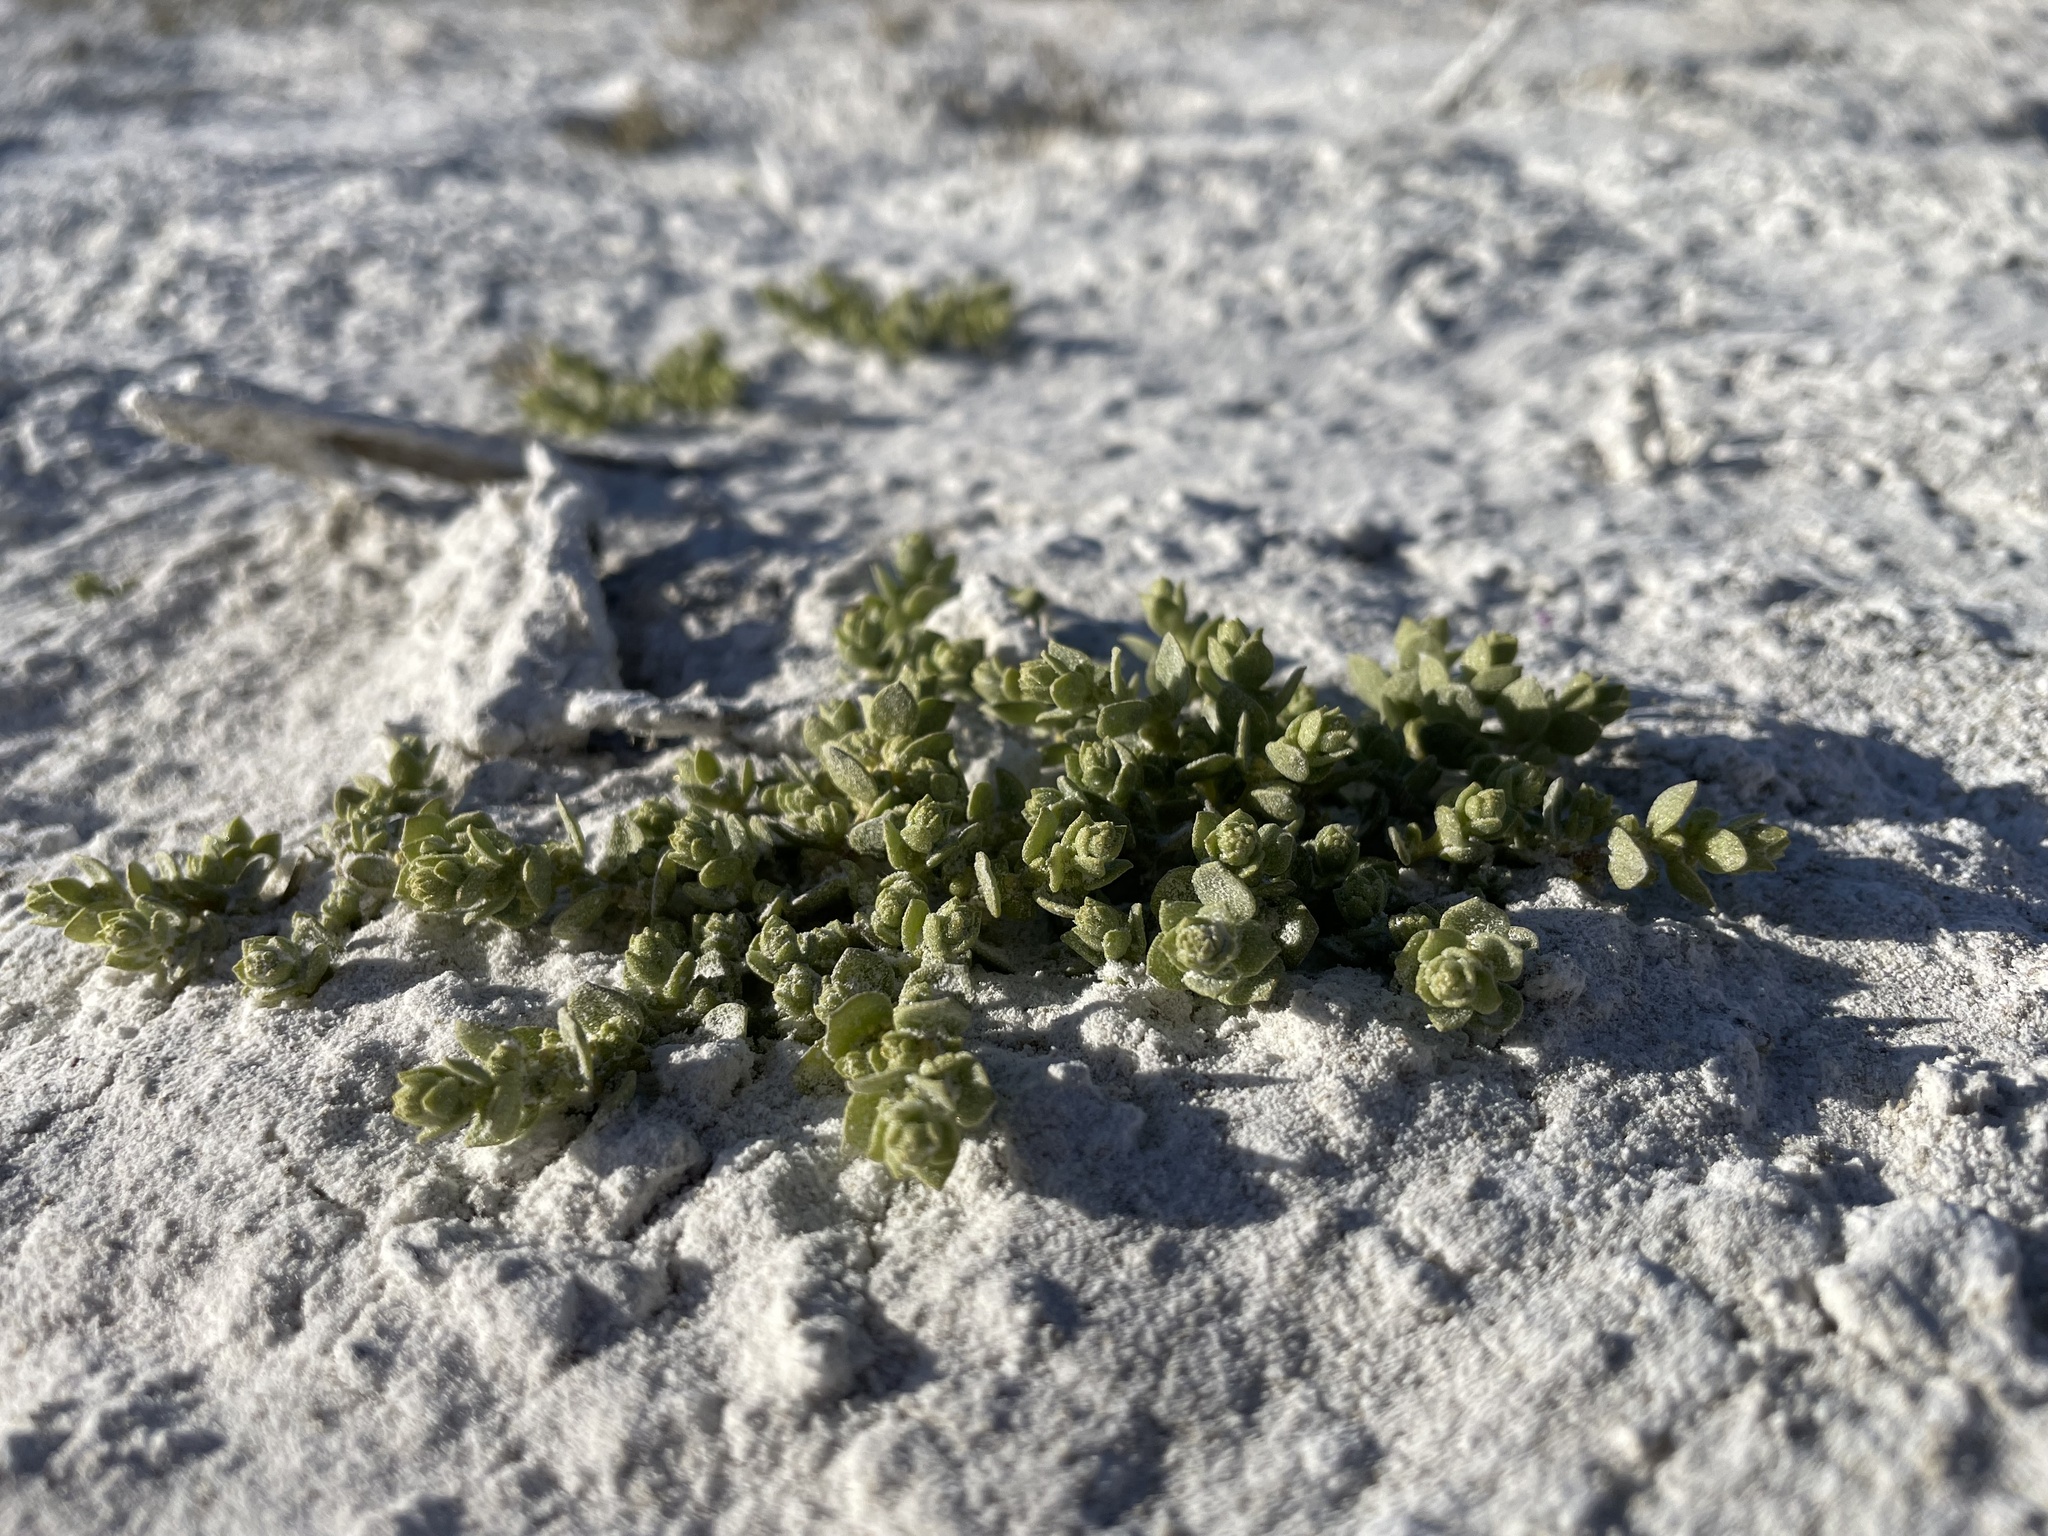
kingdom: Plantae
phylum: Tracheophyta
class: Magnoliopsida
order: Caryophyllales
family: Amaranthaceae
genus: Atriplex
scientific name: Atriplex flavida
